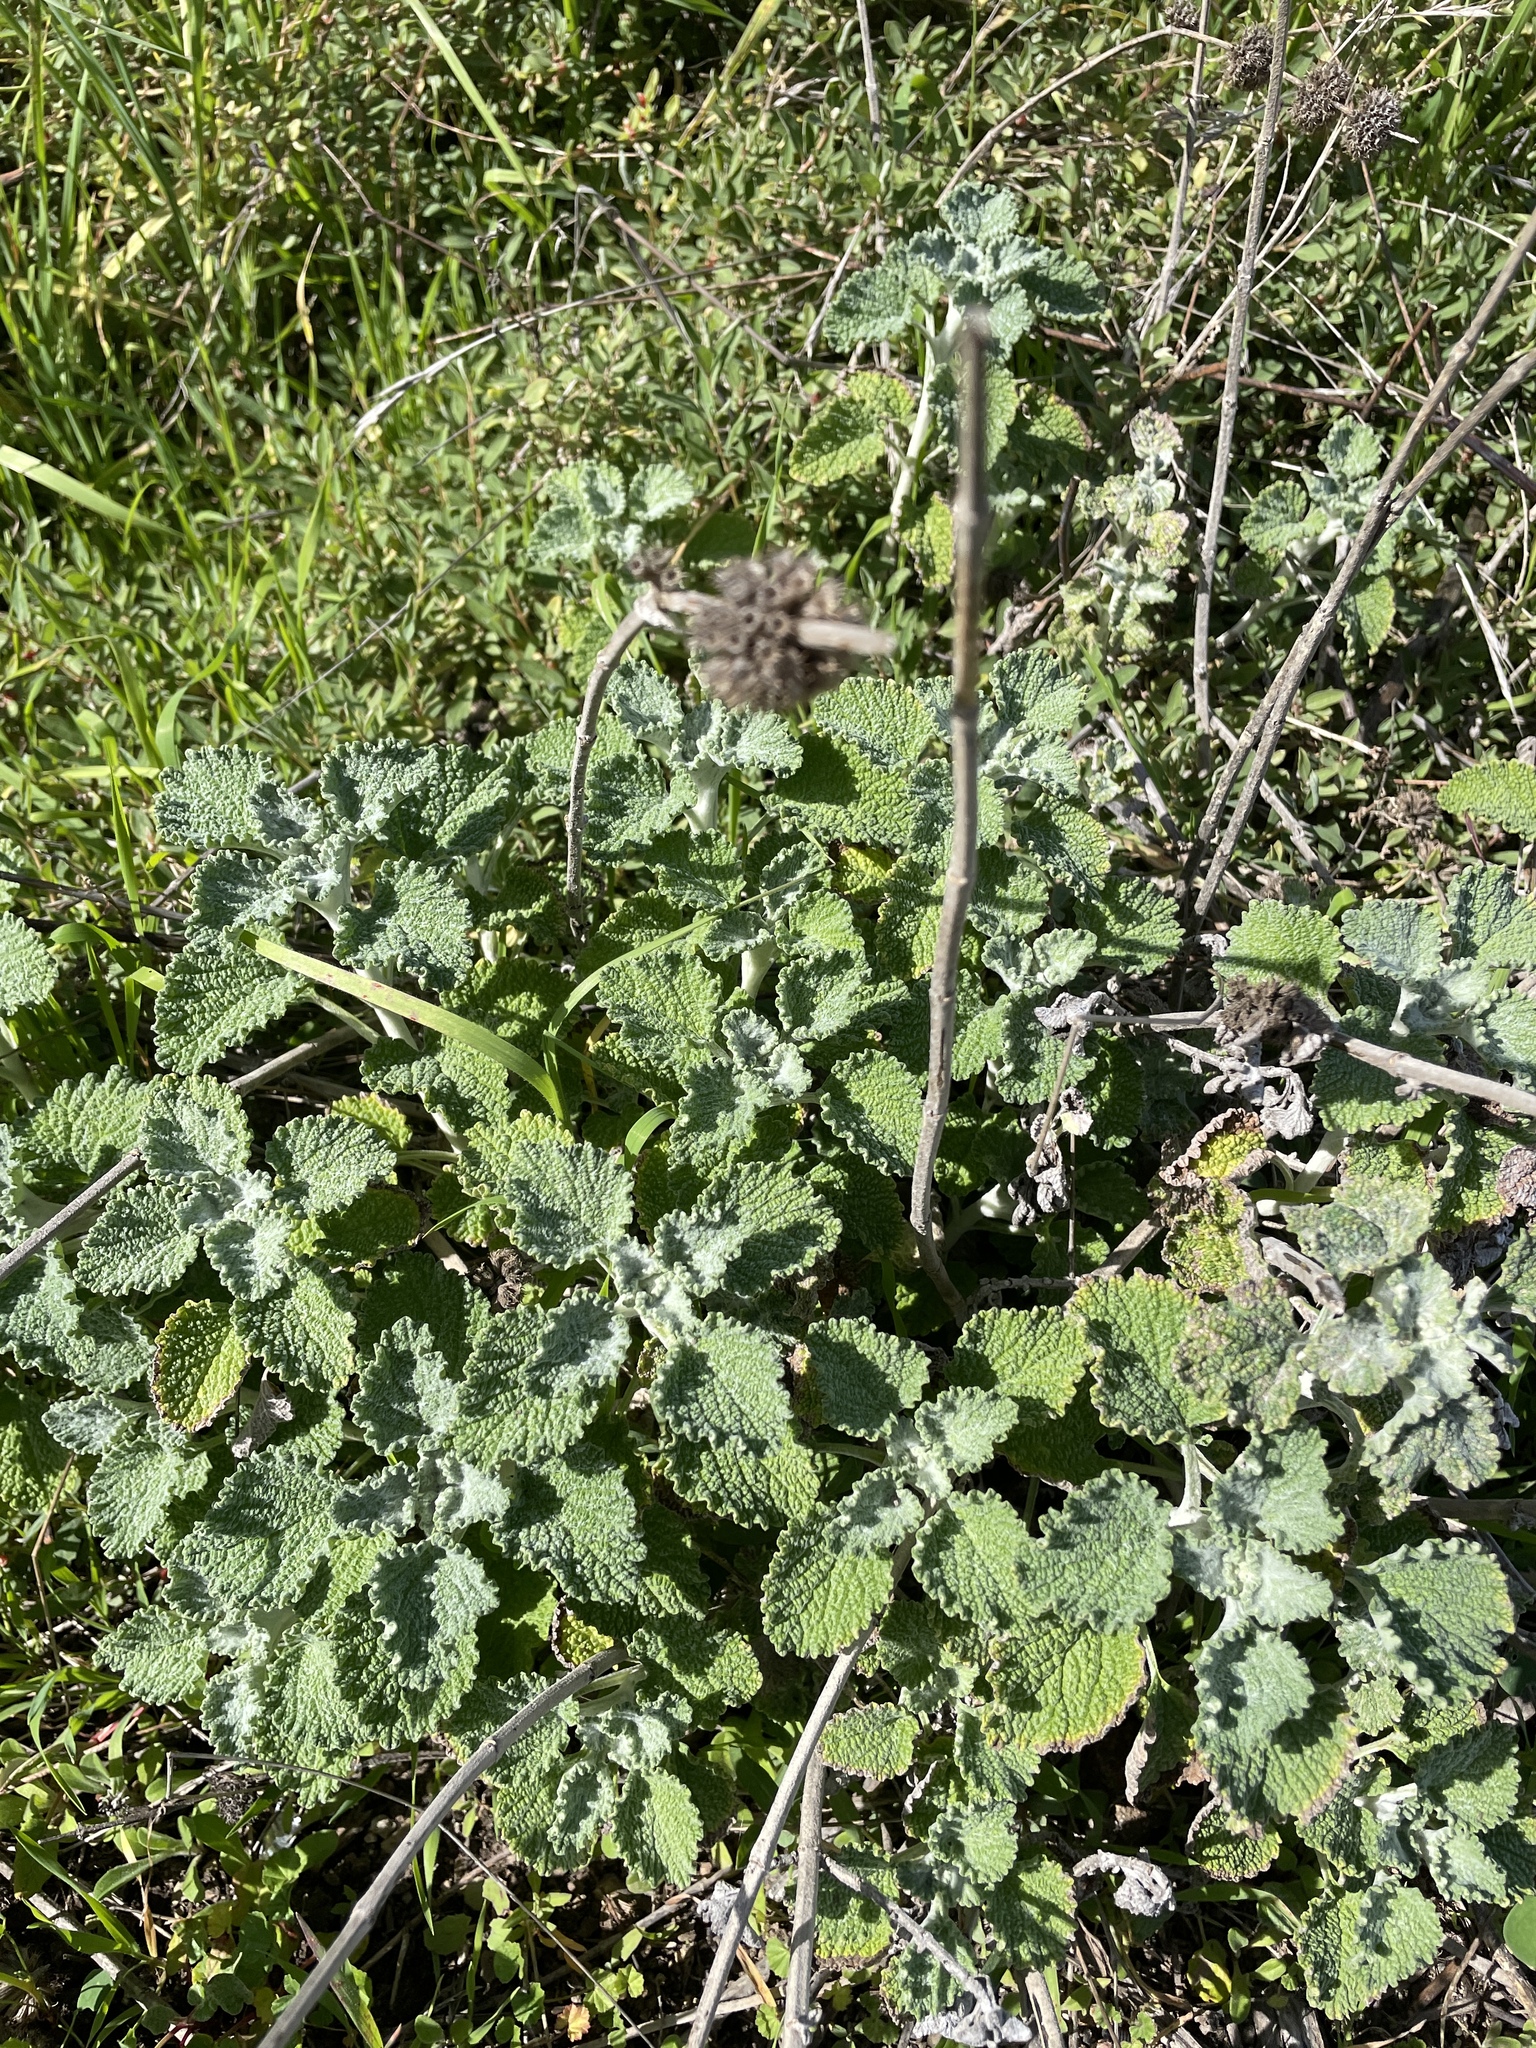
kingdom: Plantae
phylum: Tracheophyta
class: Magnoliopsida
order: Lamiales
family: Lamiaceae
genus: Marrubium
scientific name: Marrubium vulgare
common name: Horehound
